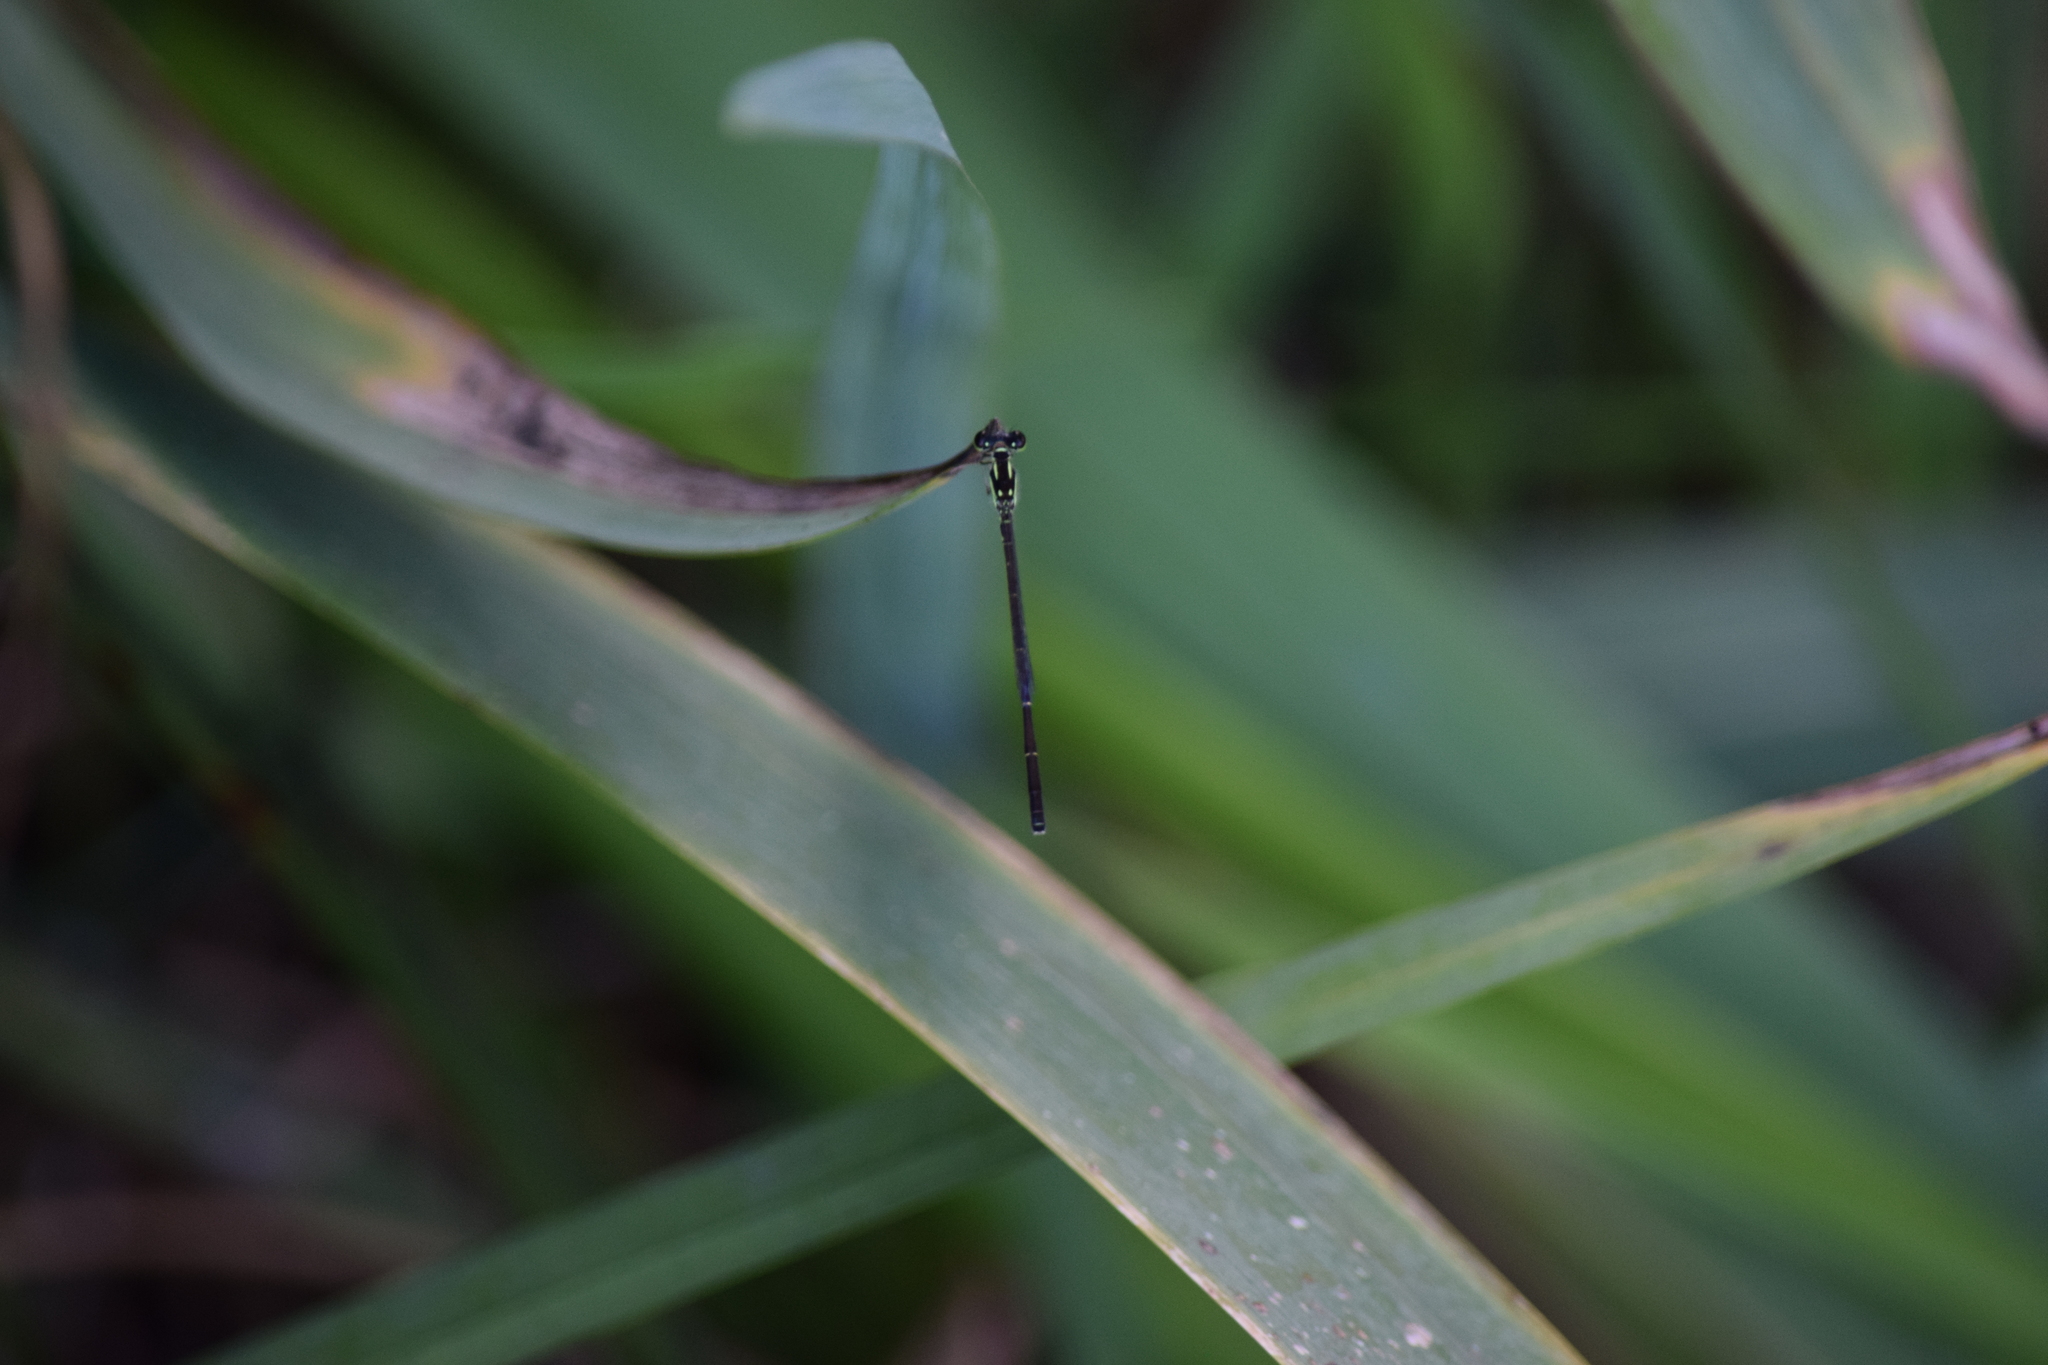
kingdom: Animalia
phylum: Arthropoda
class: Insecta
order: Odonata
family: Coenagrionidae
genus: Ischnura
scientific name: Ischnura posita
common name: Fragile forktail
